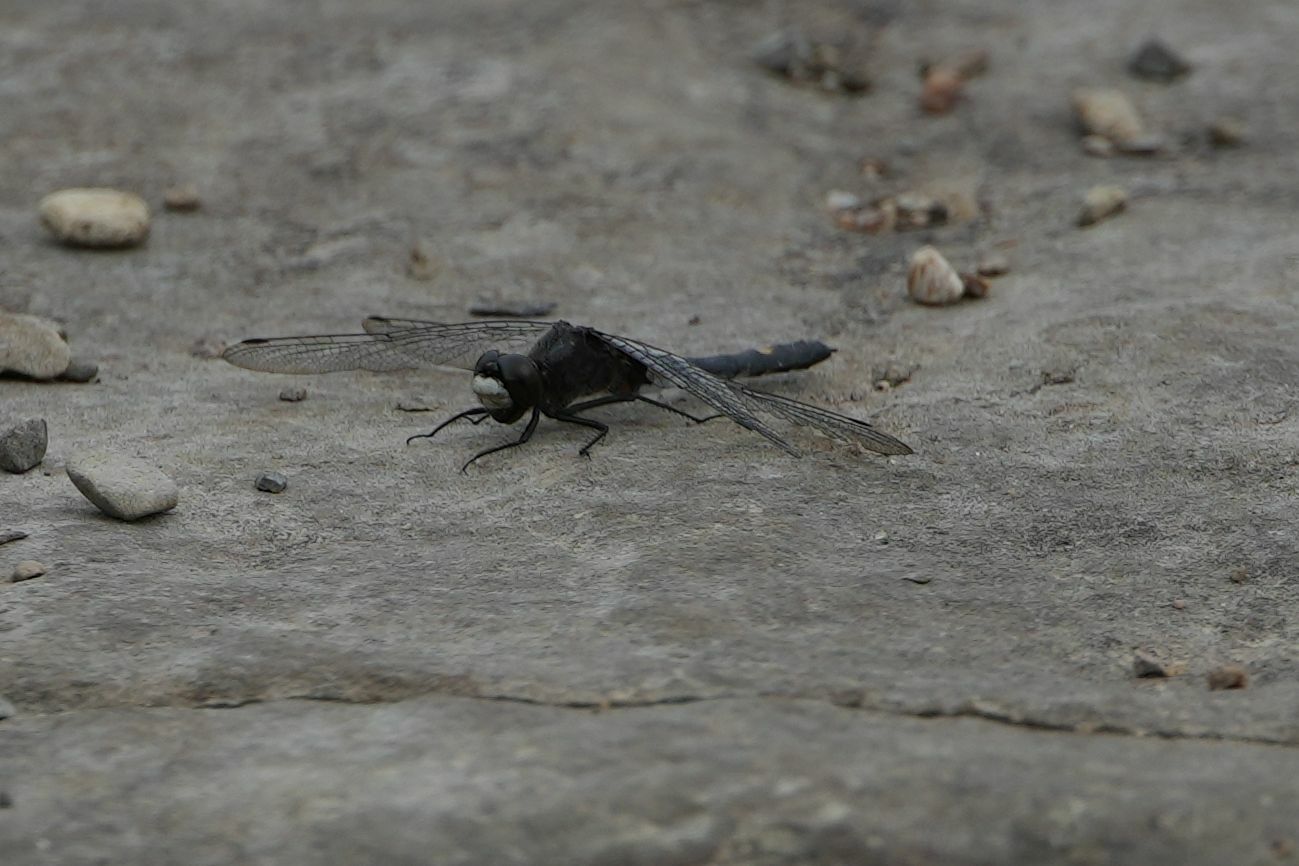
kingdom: Animalia
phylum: Arthropoda
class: Insecta
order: Odonata
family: Libellulidae
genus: Leucorrhinia
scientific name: Leucorrhinia intacta
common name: Dot-tailed whiteface
